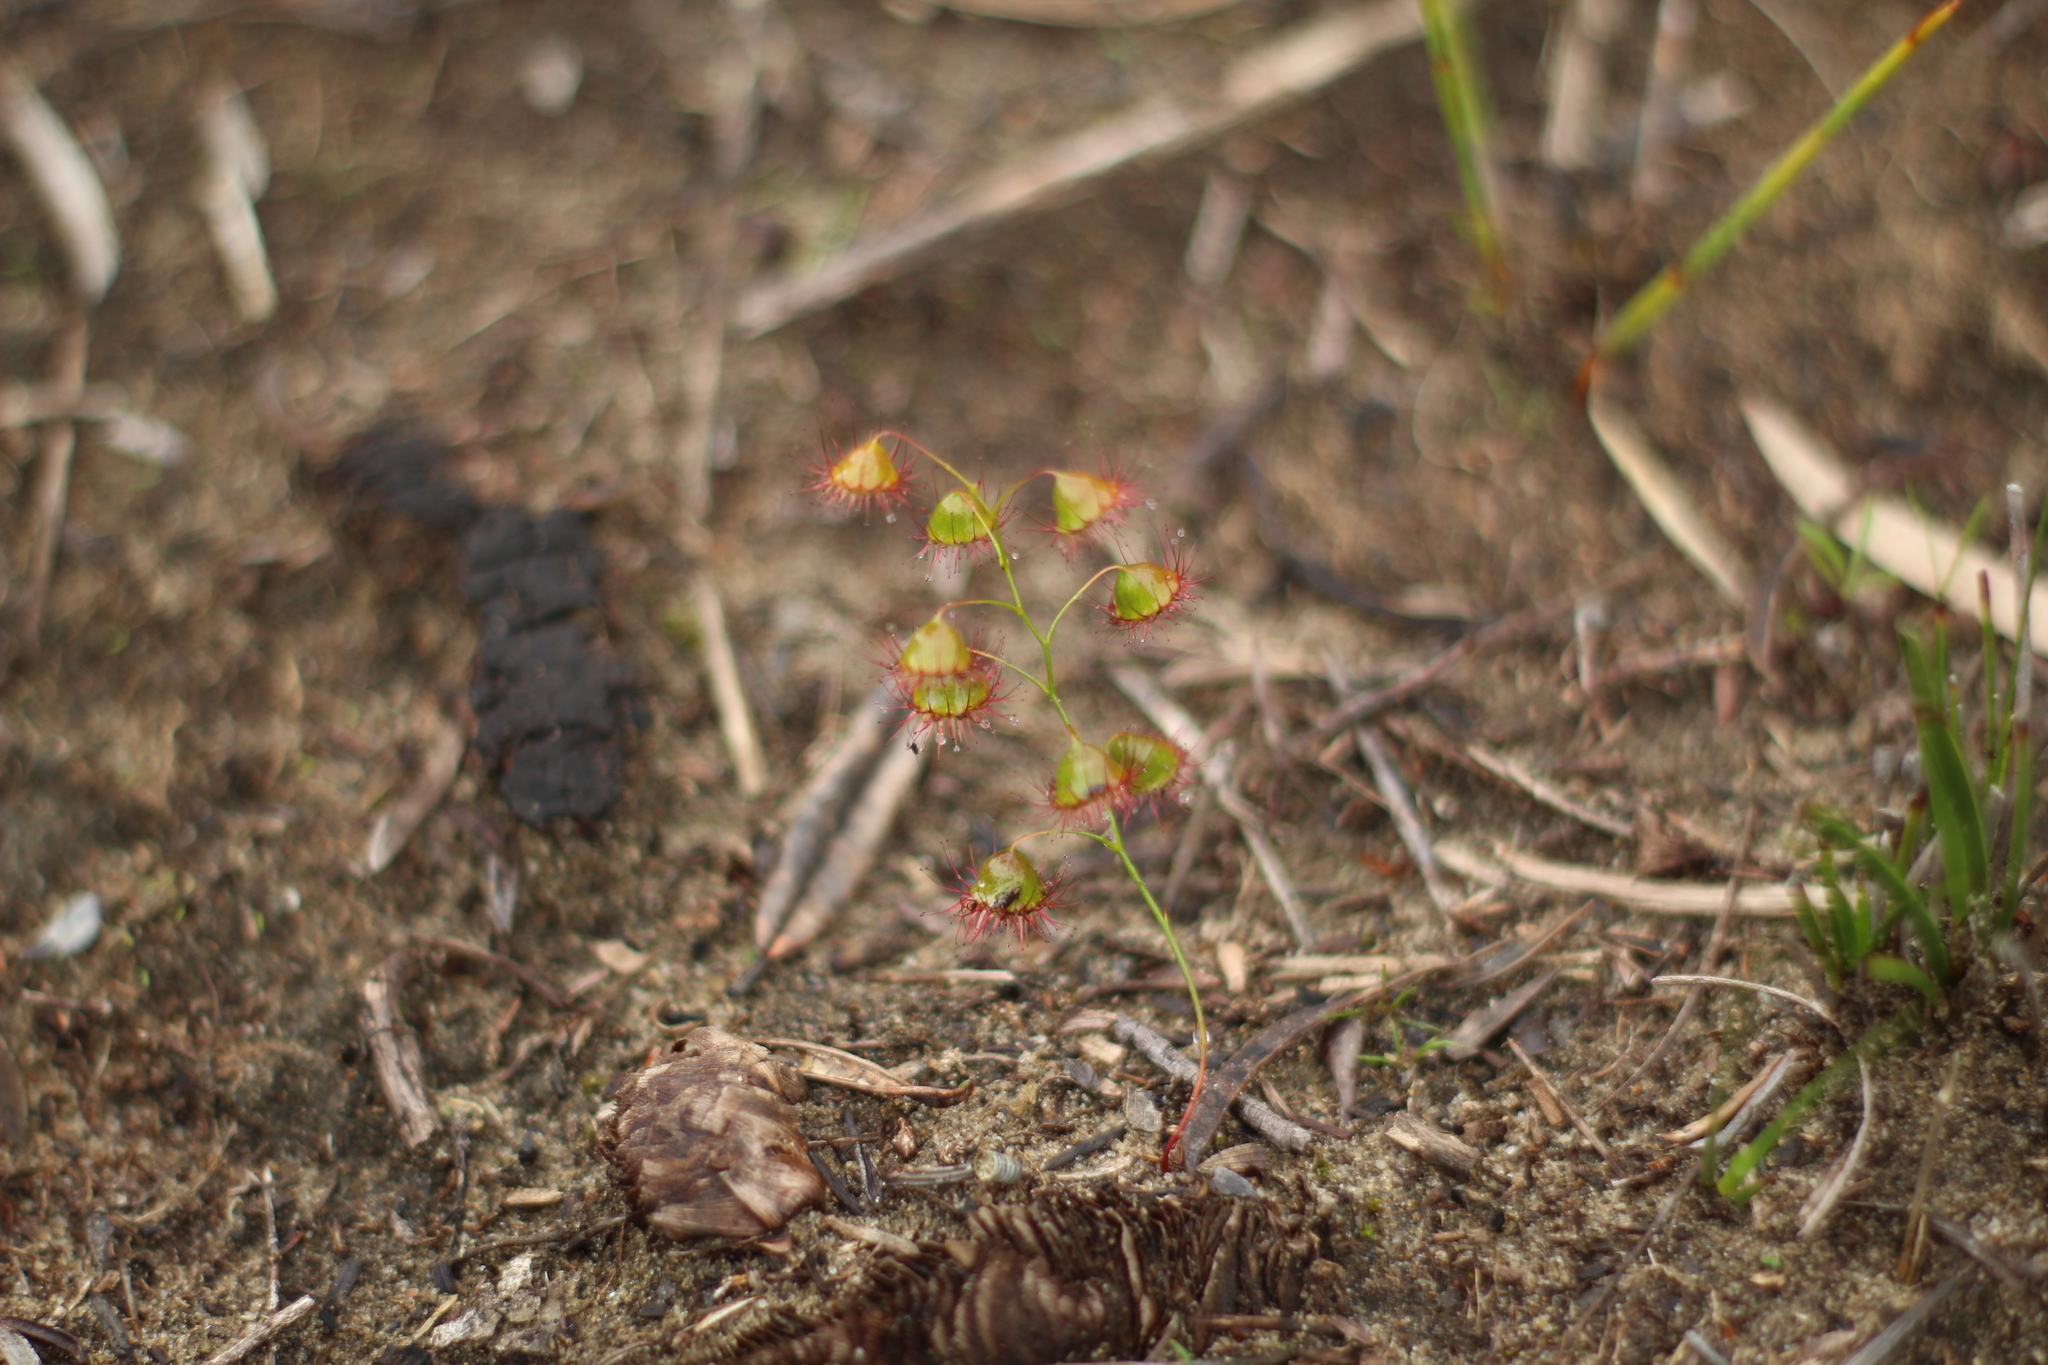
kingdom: Plantae
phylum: Tracheophyta
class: Magnoliopsida
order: Caryophyllales
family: Droseraceae
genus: Drosera
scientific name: Drosera huegelii
